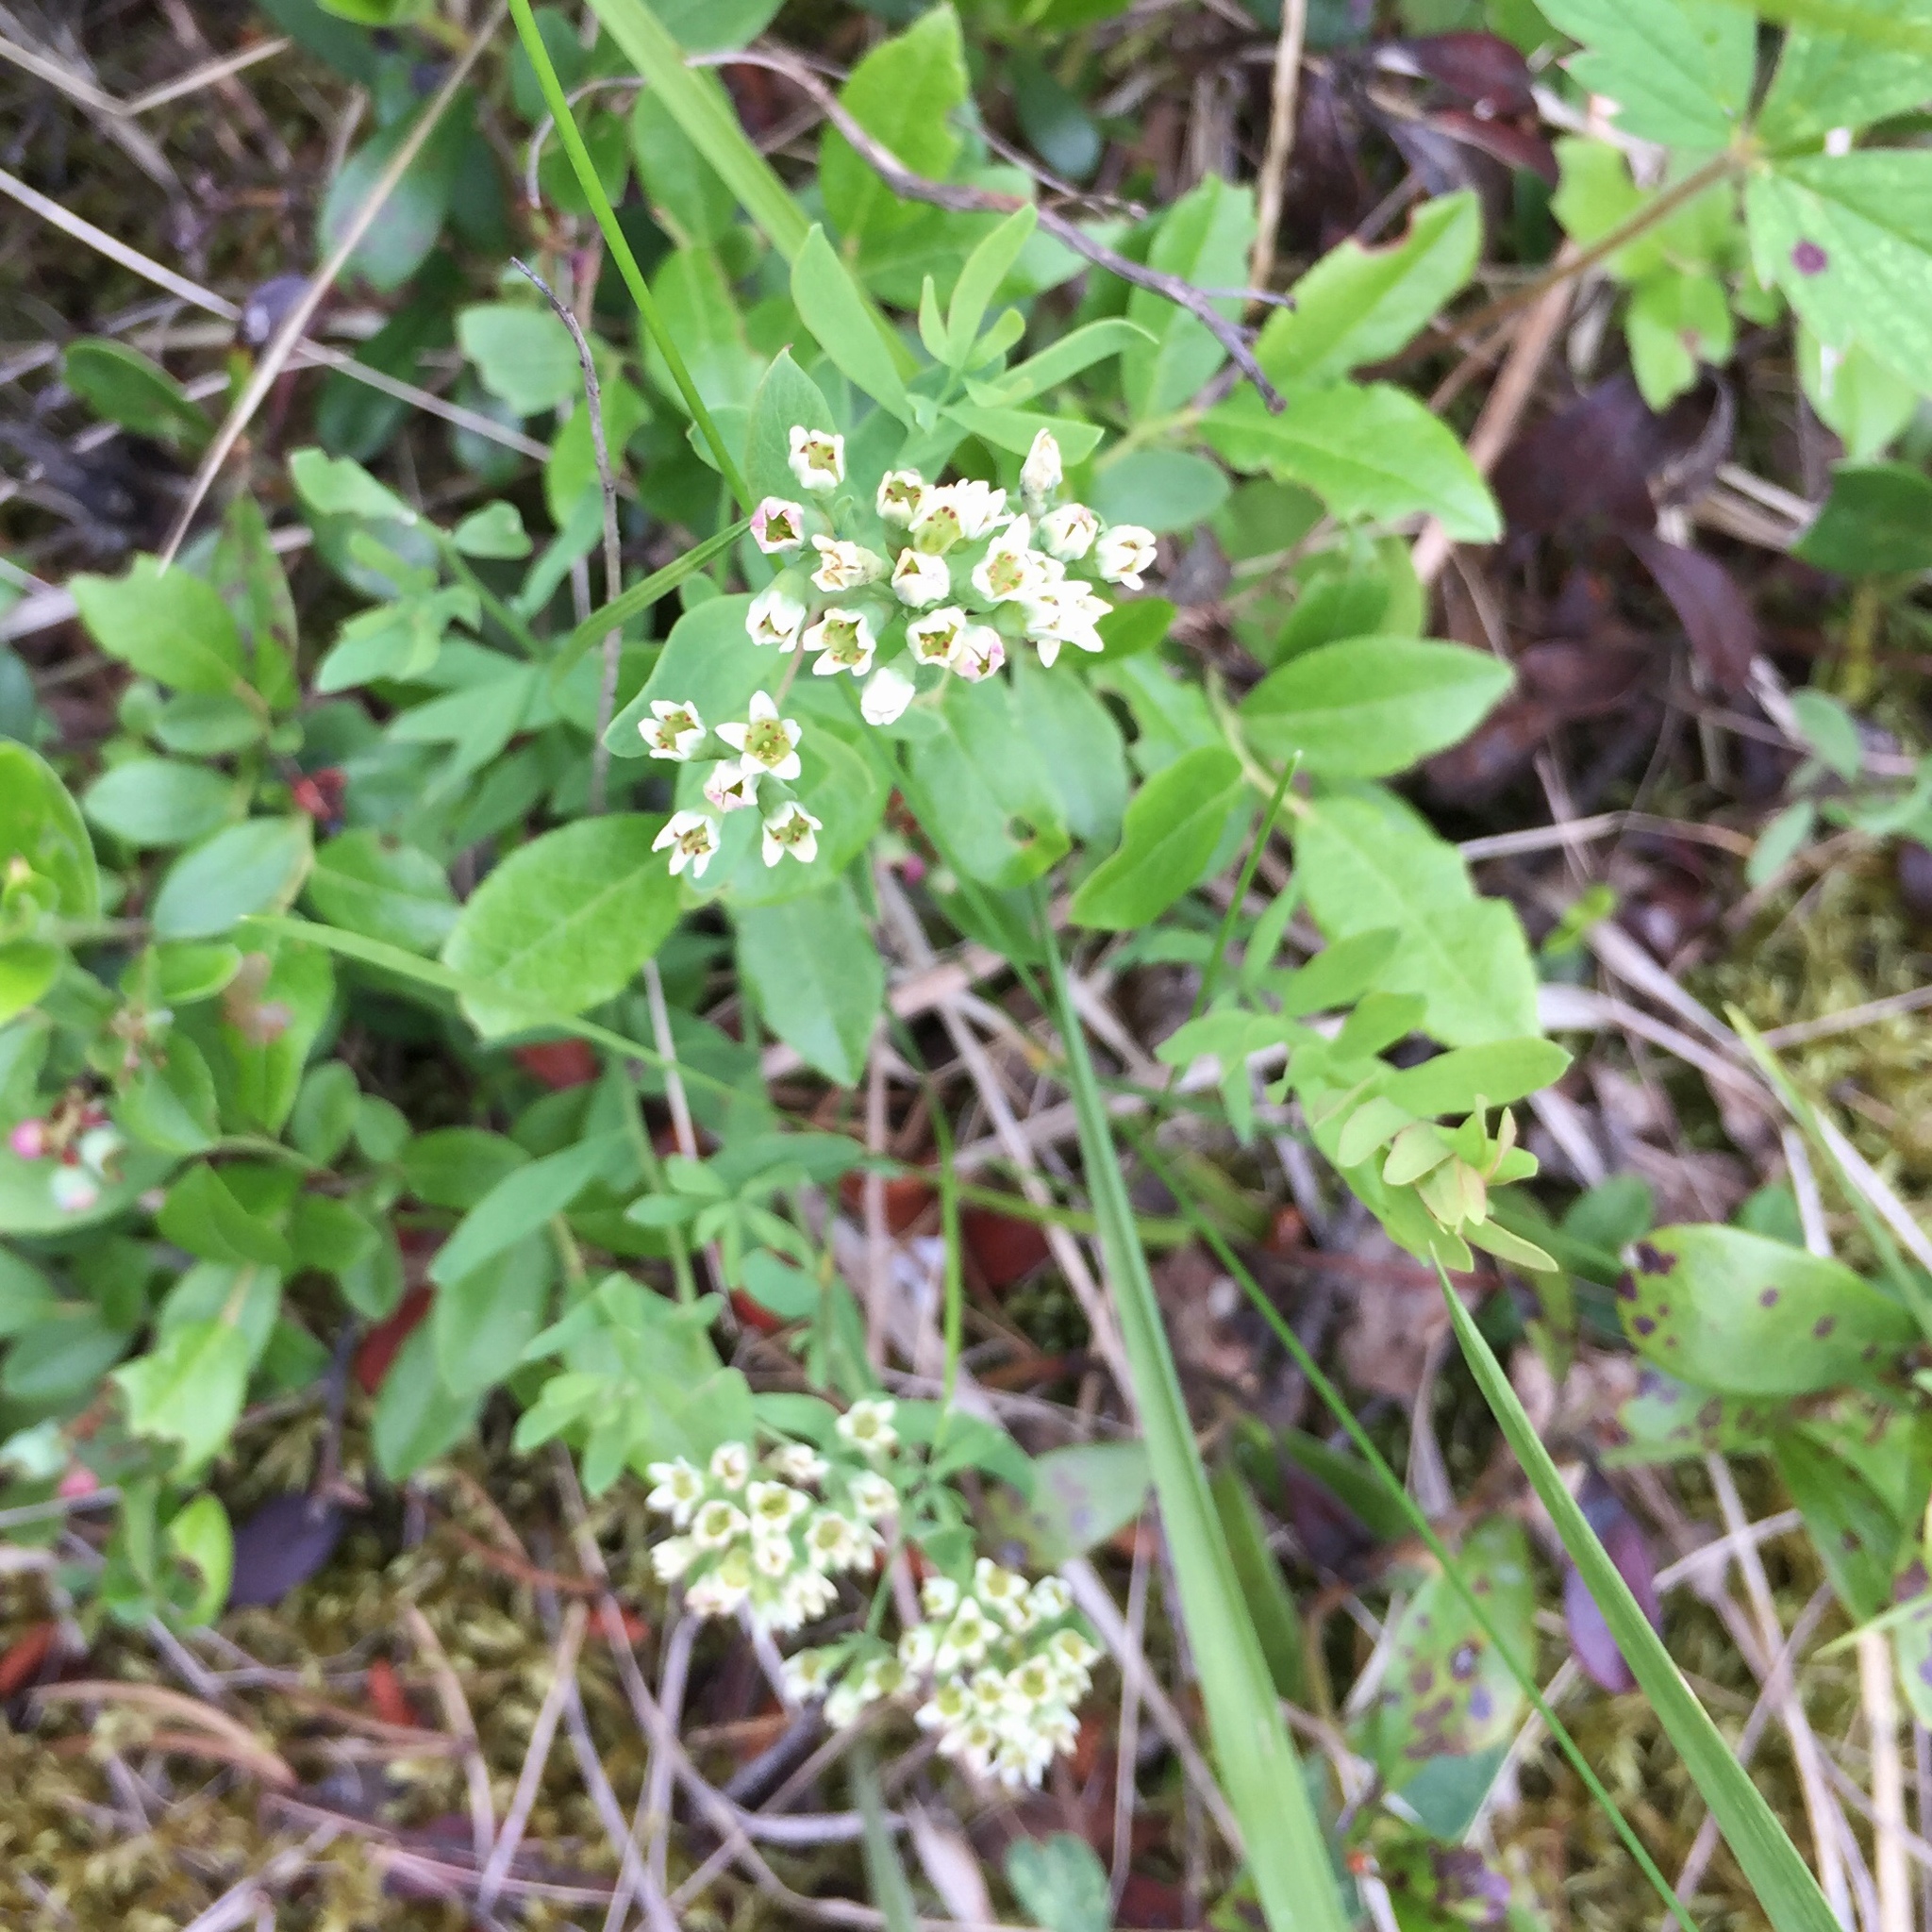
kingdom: Plantae
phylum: Tracheophyta
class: Magnoliopsida
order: Santalales
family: Comandraceae
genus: Comandra
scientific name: Comandra umbellata
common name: Bastard toadflax
